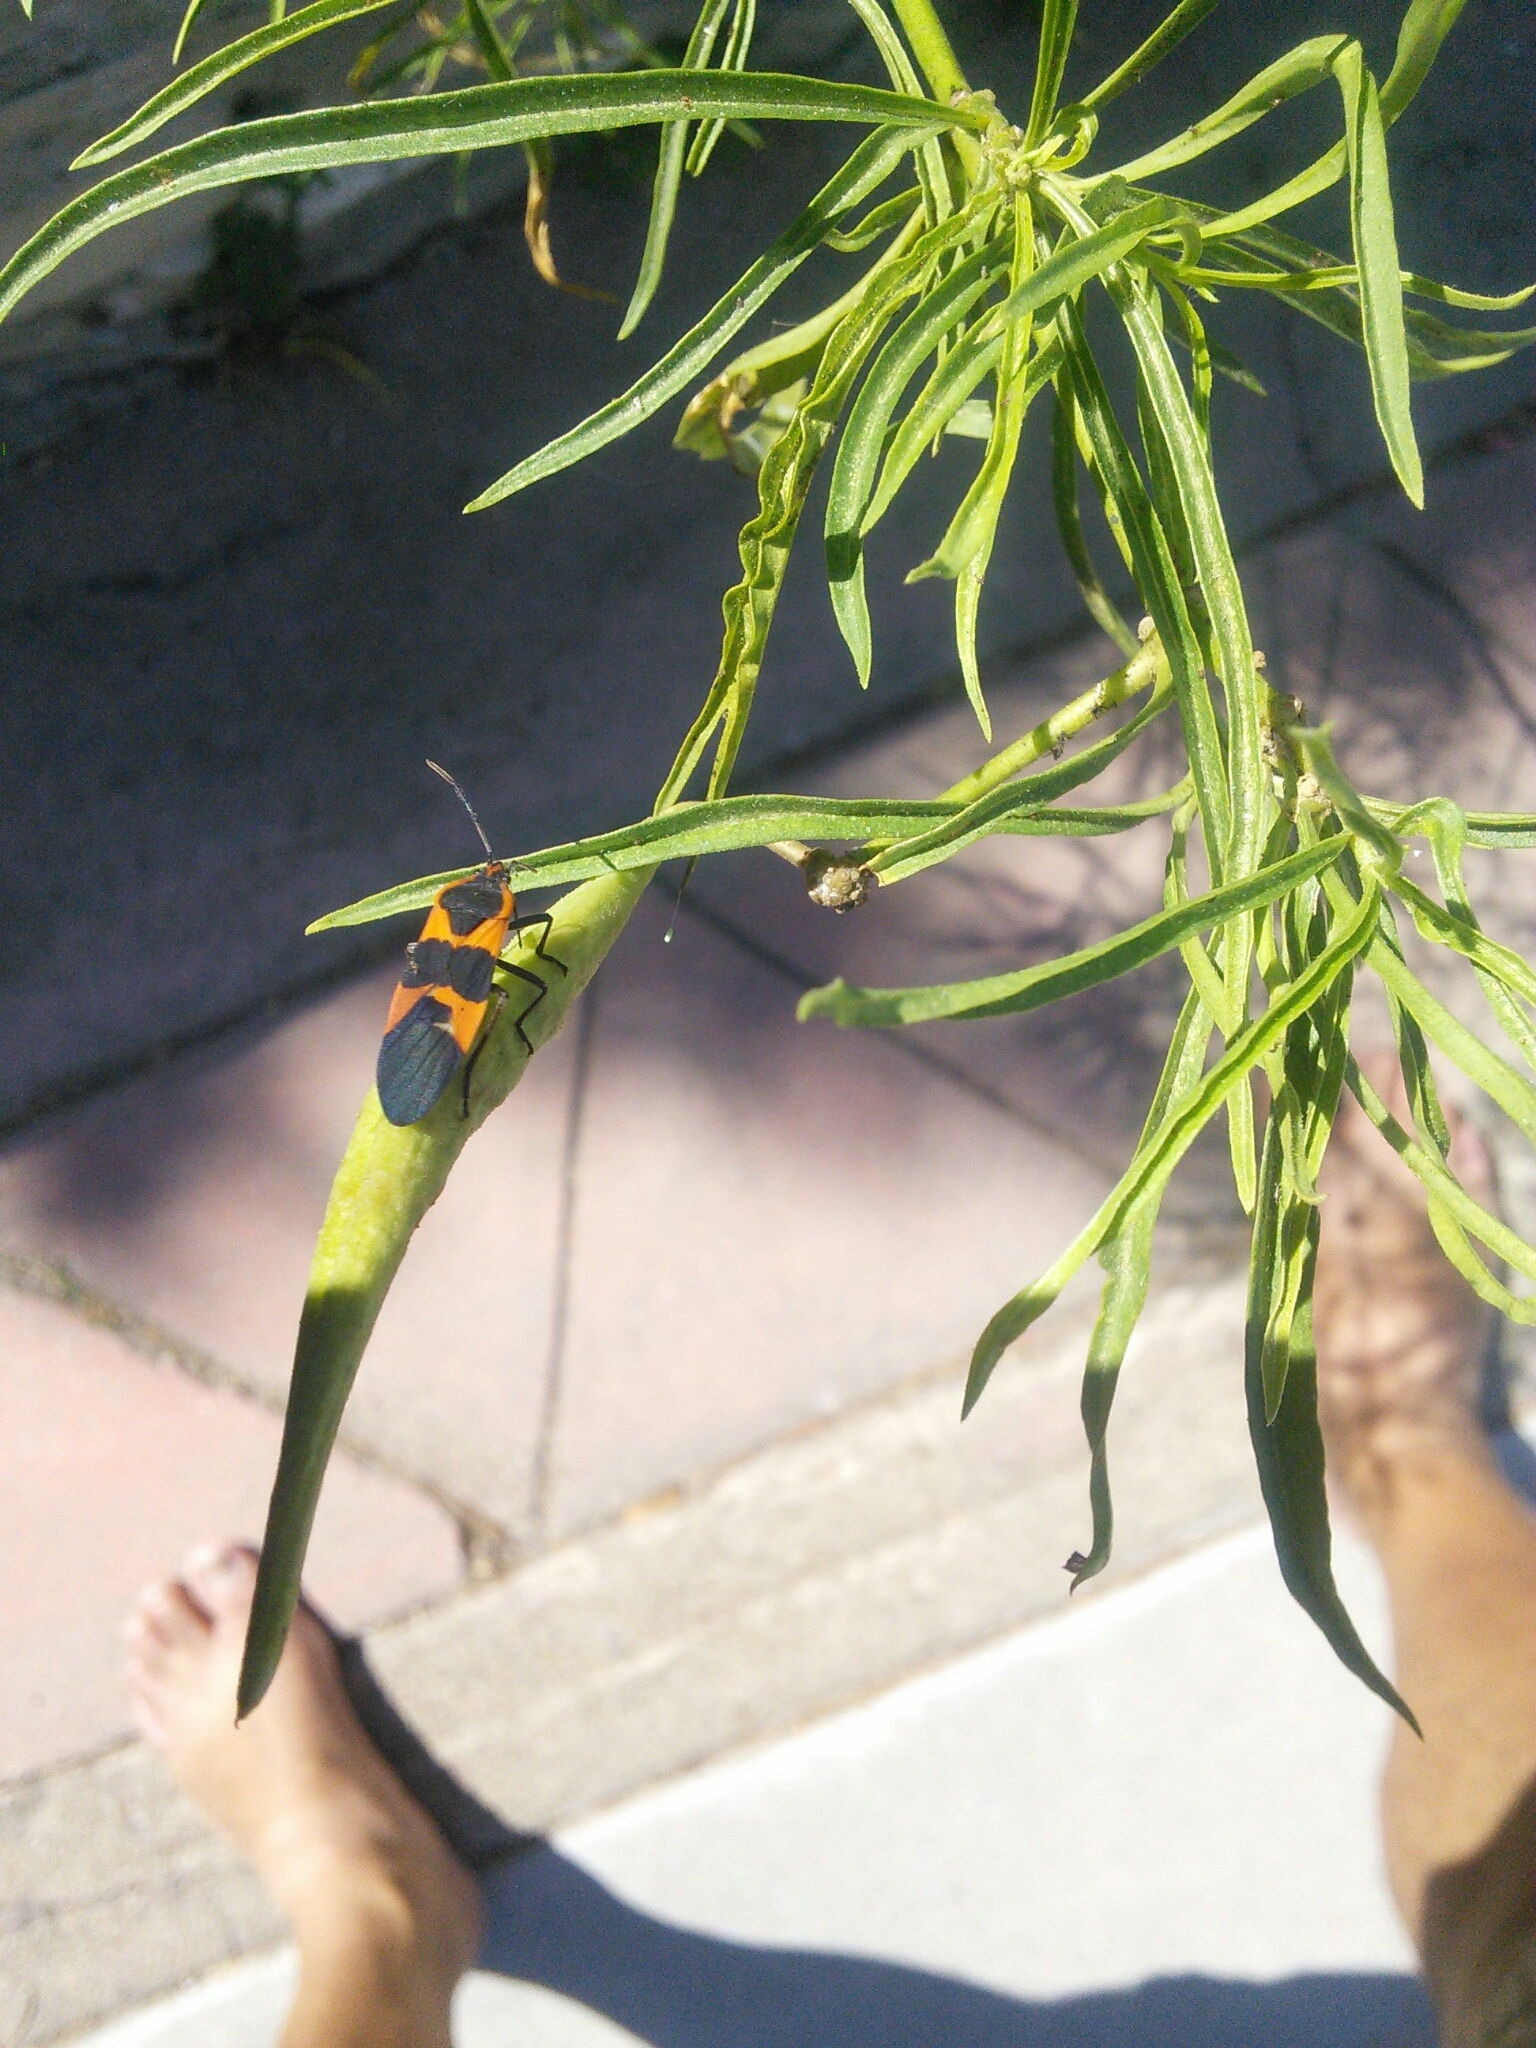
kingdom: Animalia
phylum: Arthropoda
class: Insecta
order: Hemiptera
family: Lygaeidae
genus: Oncopeltus
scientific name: Oncopeltus fasciatus
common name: Large milkweed bug
